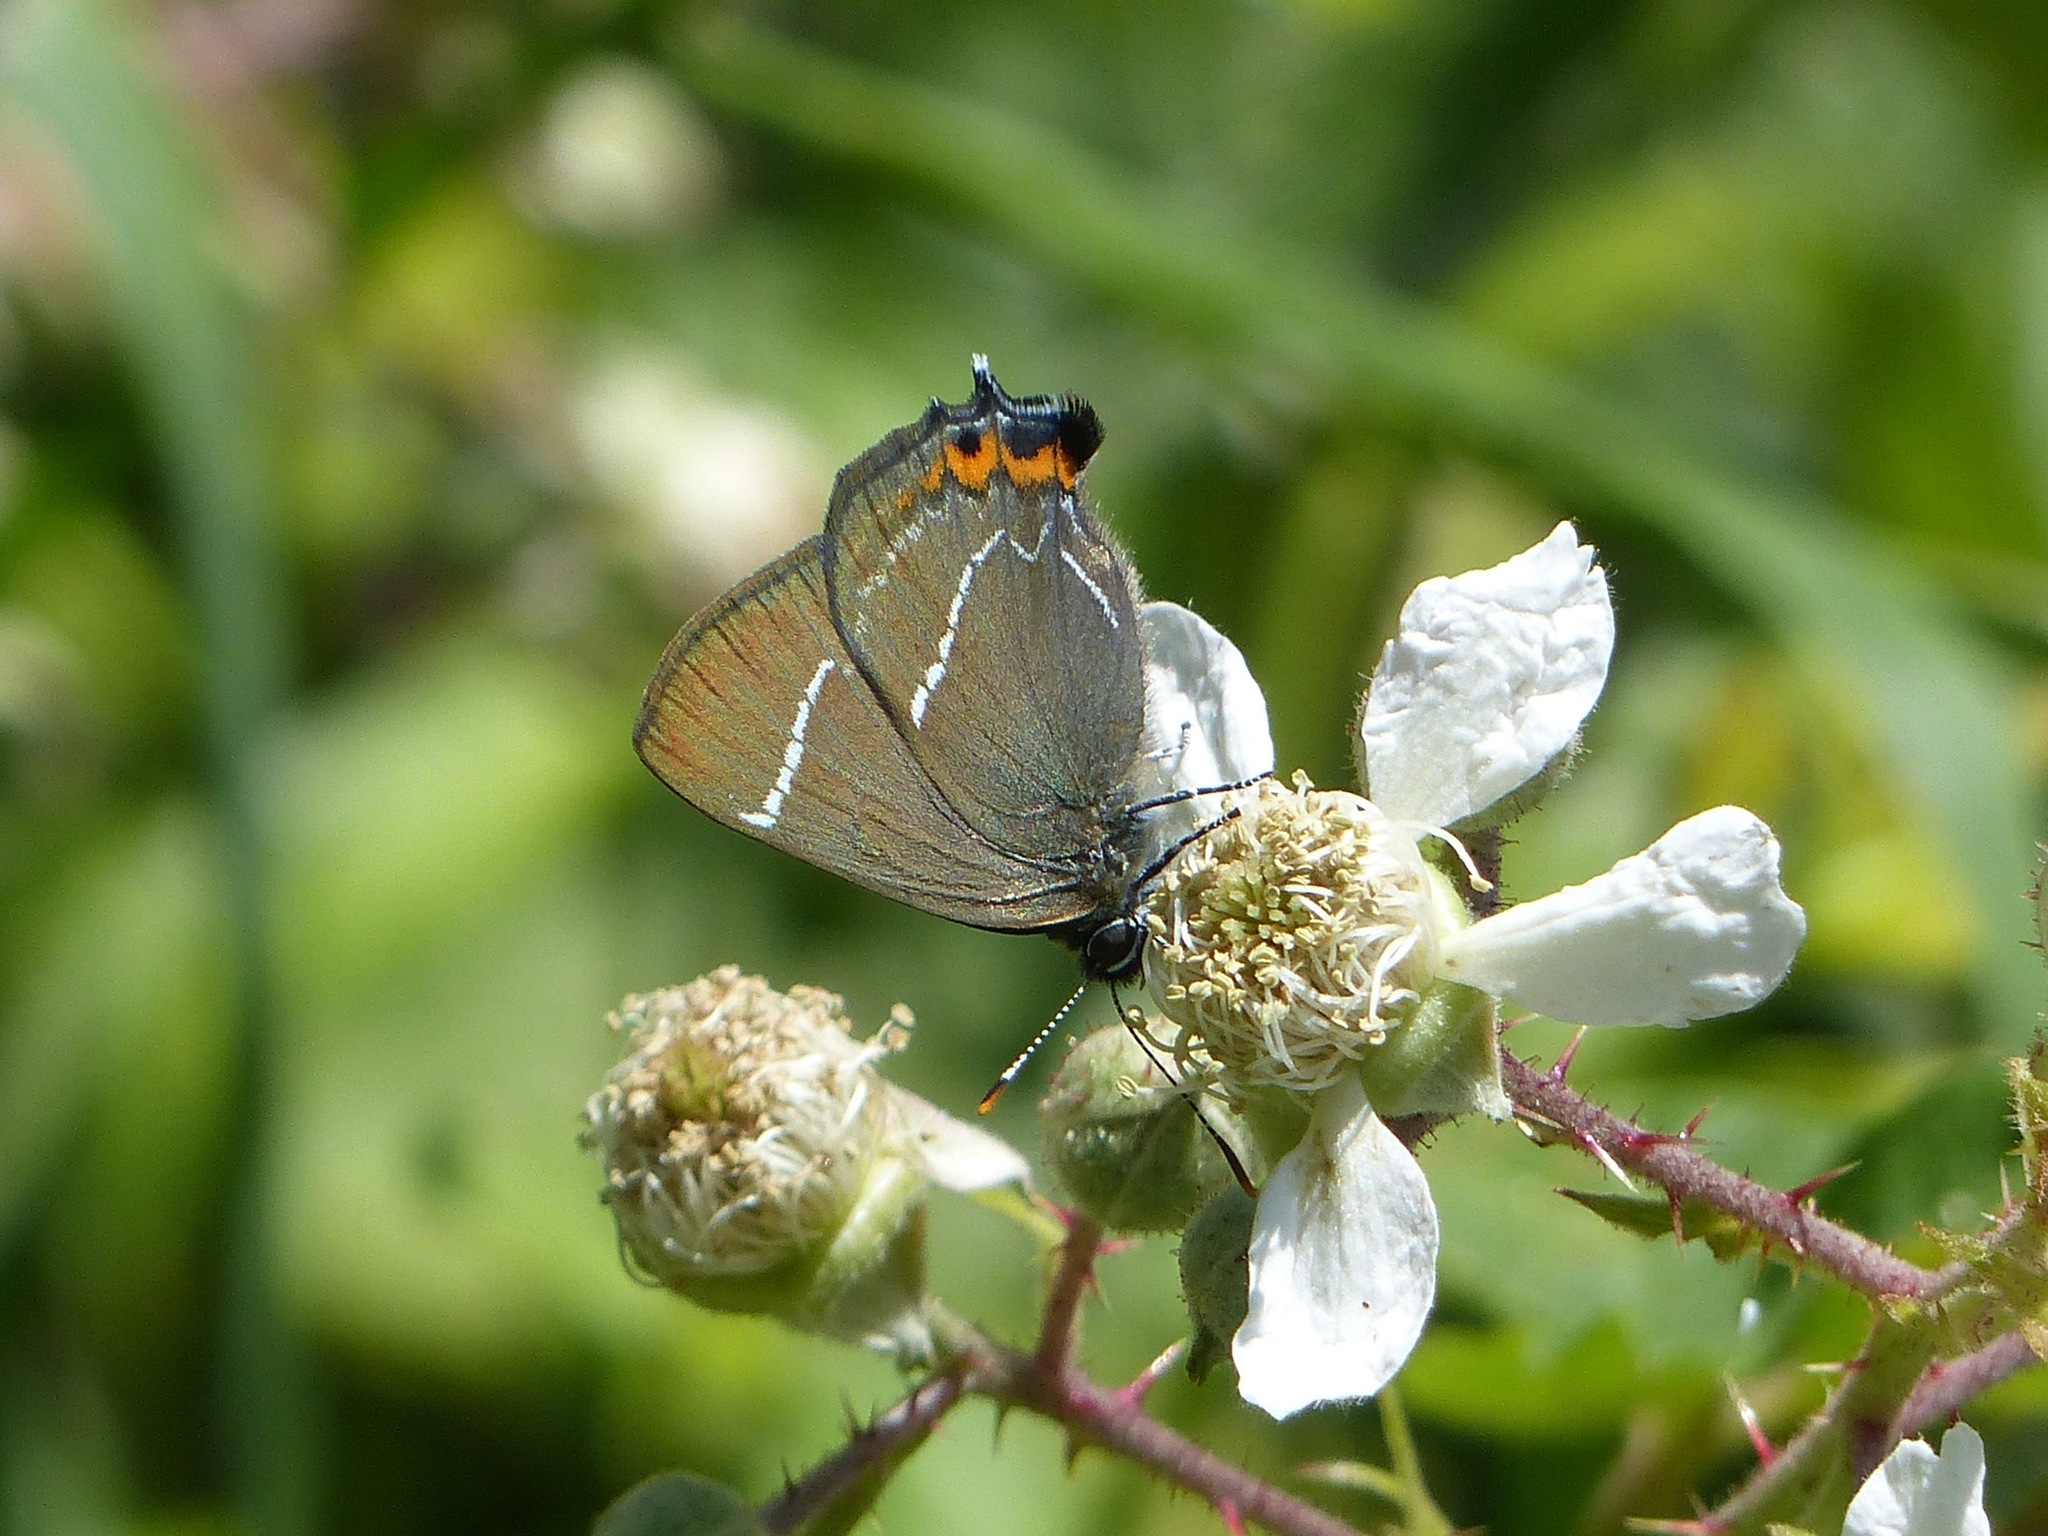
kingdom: Animalia
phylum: Arthropoda
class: Insecta
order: Lepidoptera
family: Lycaenidae
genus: Satyrium
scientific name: Satyrium w-album
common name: White-letter hairstreak
